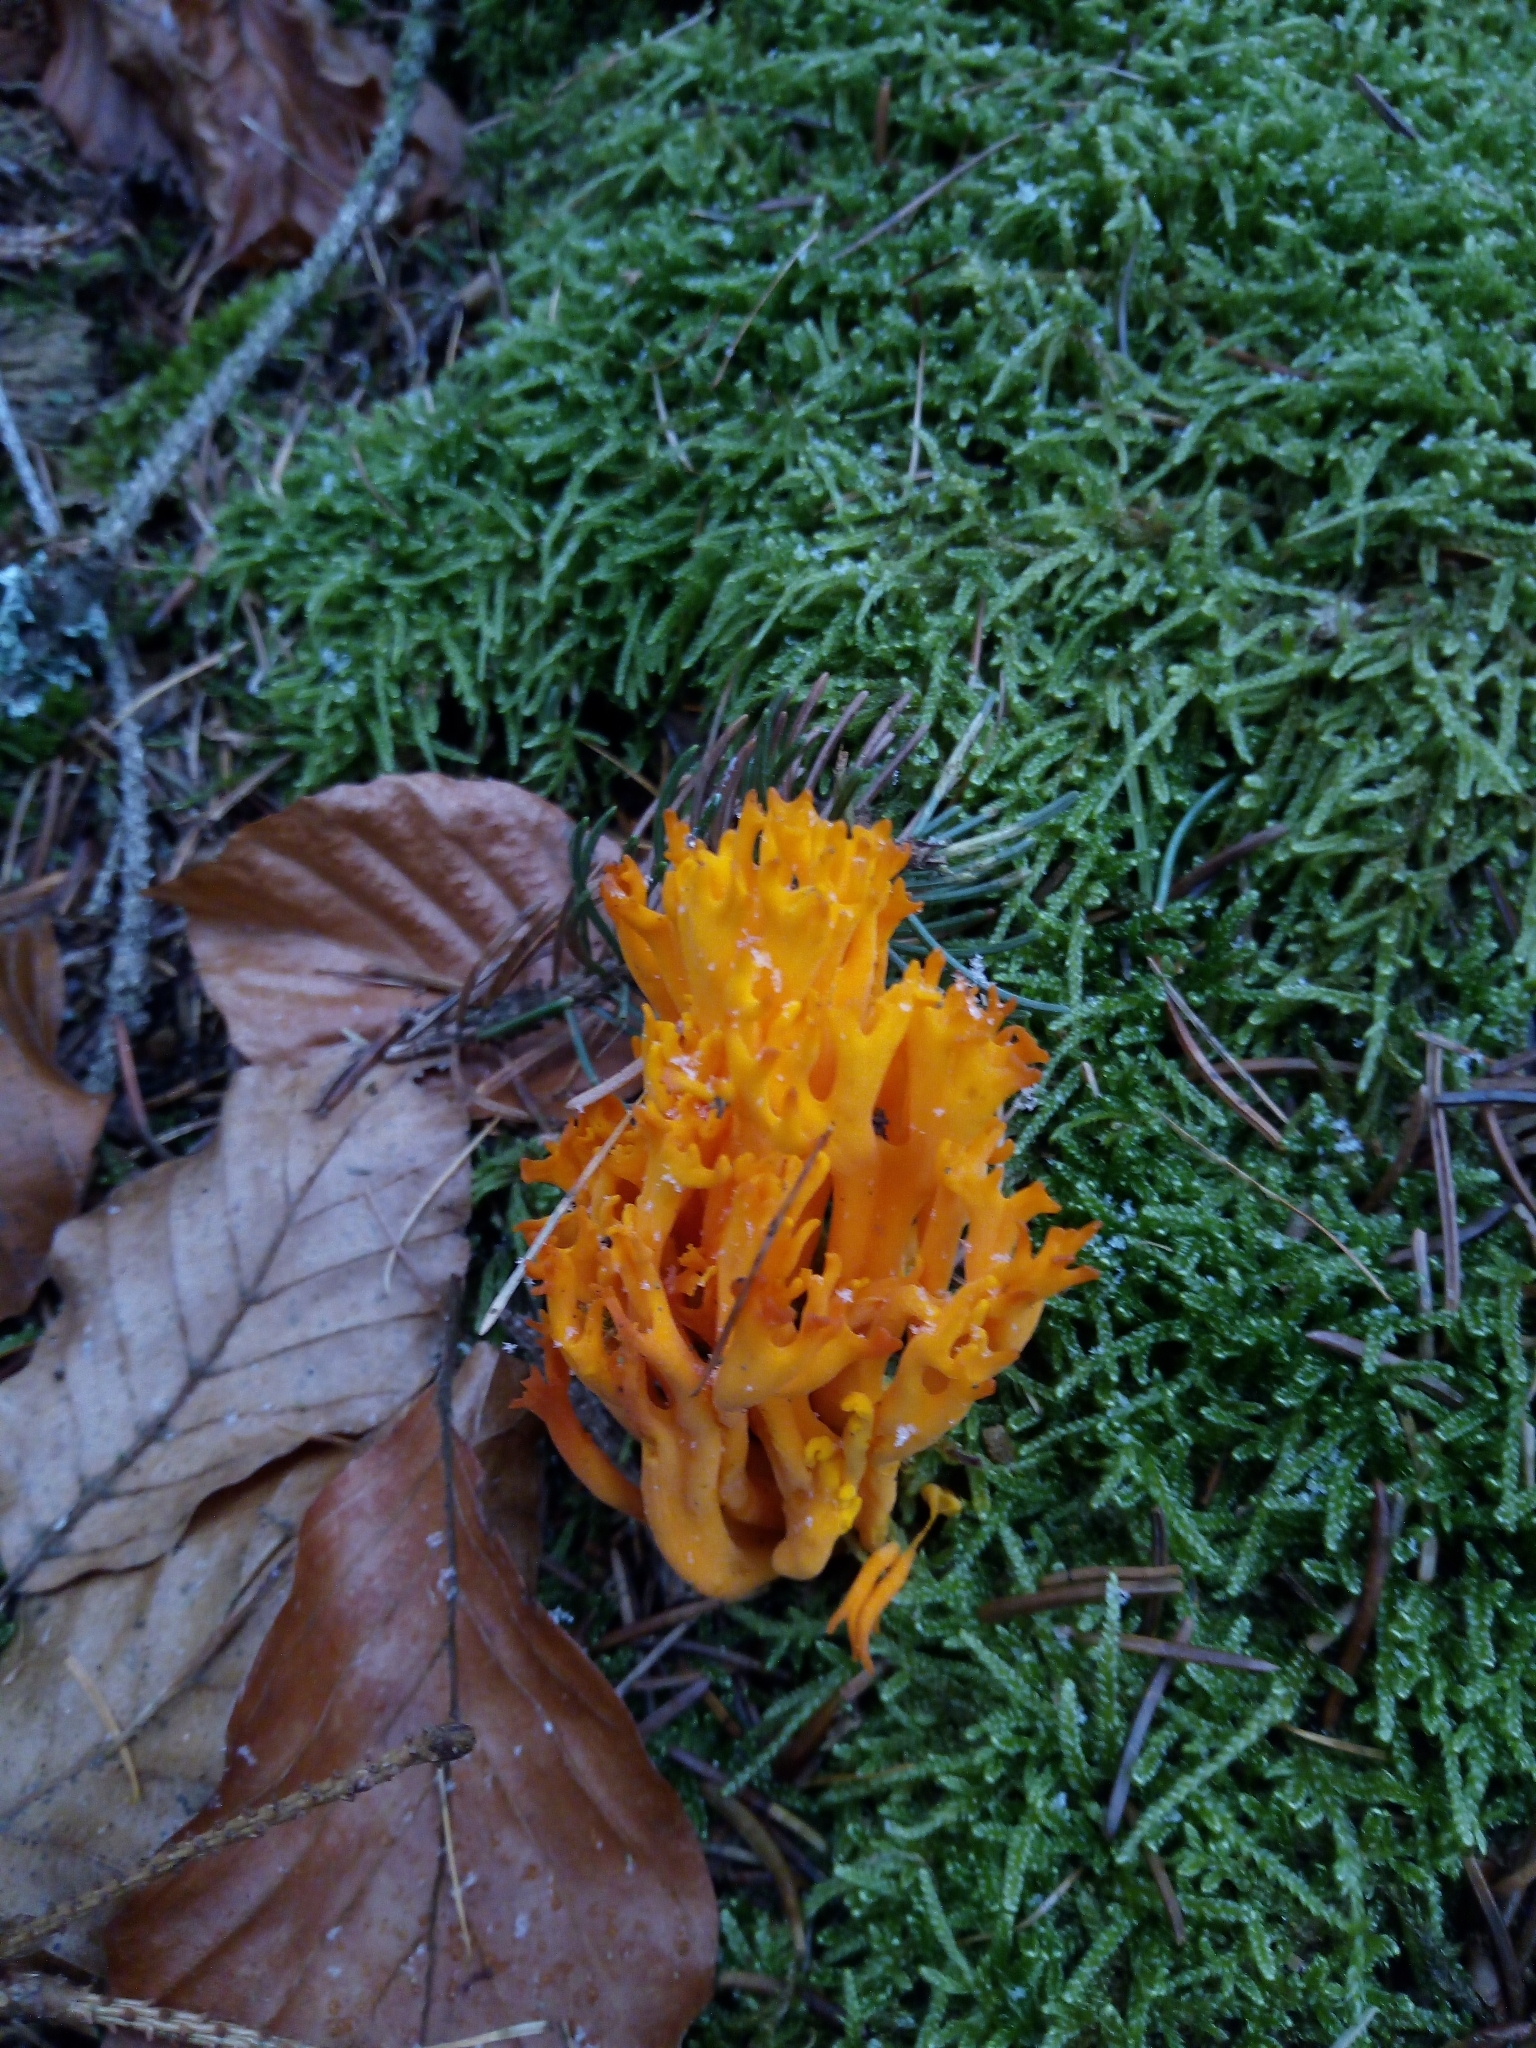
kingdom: Fungi
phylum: Basidiomycota
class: Dacrymycetes
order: Dacrymycetales
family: Dacrymycetaceae
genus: Calocera
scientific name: Calocera viscosa
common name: Yellow stagshorn
